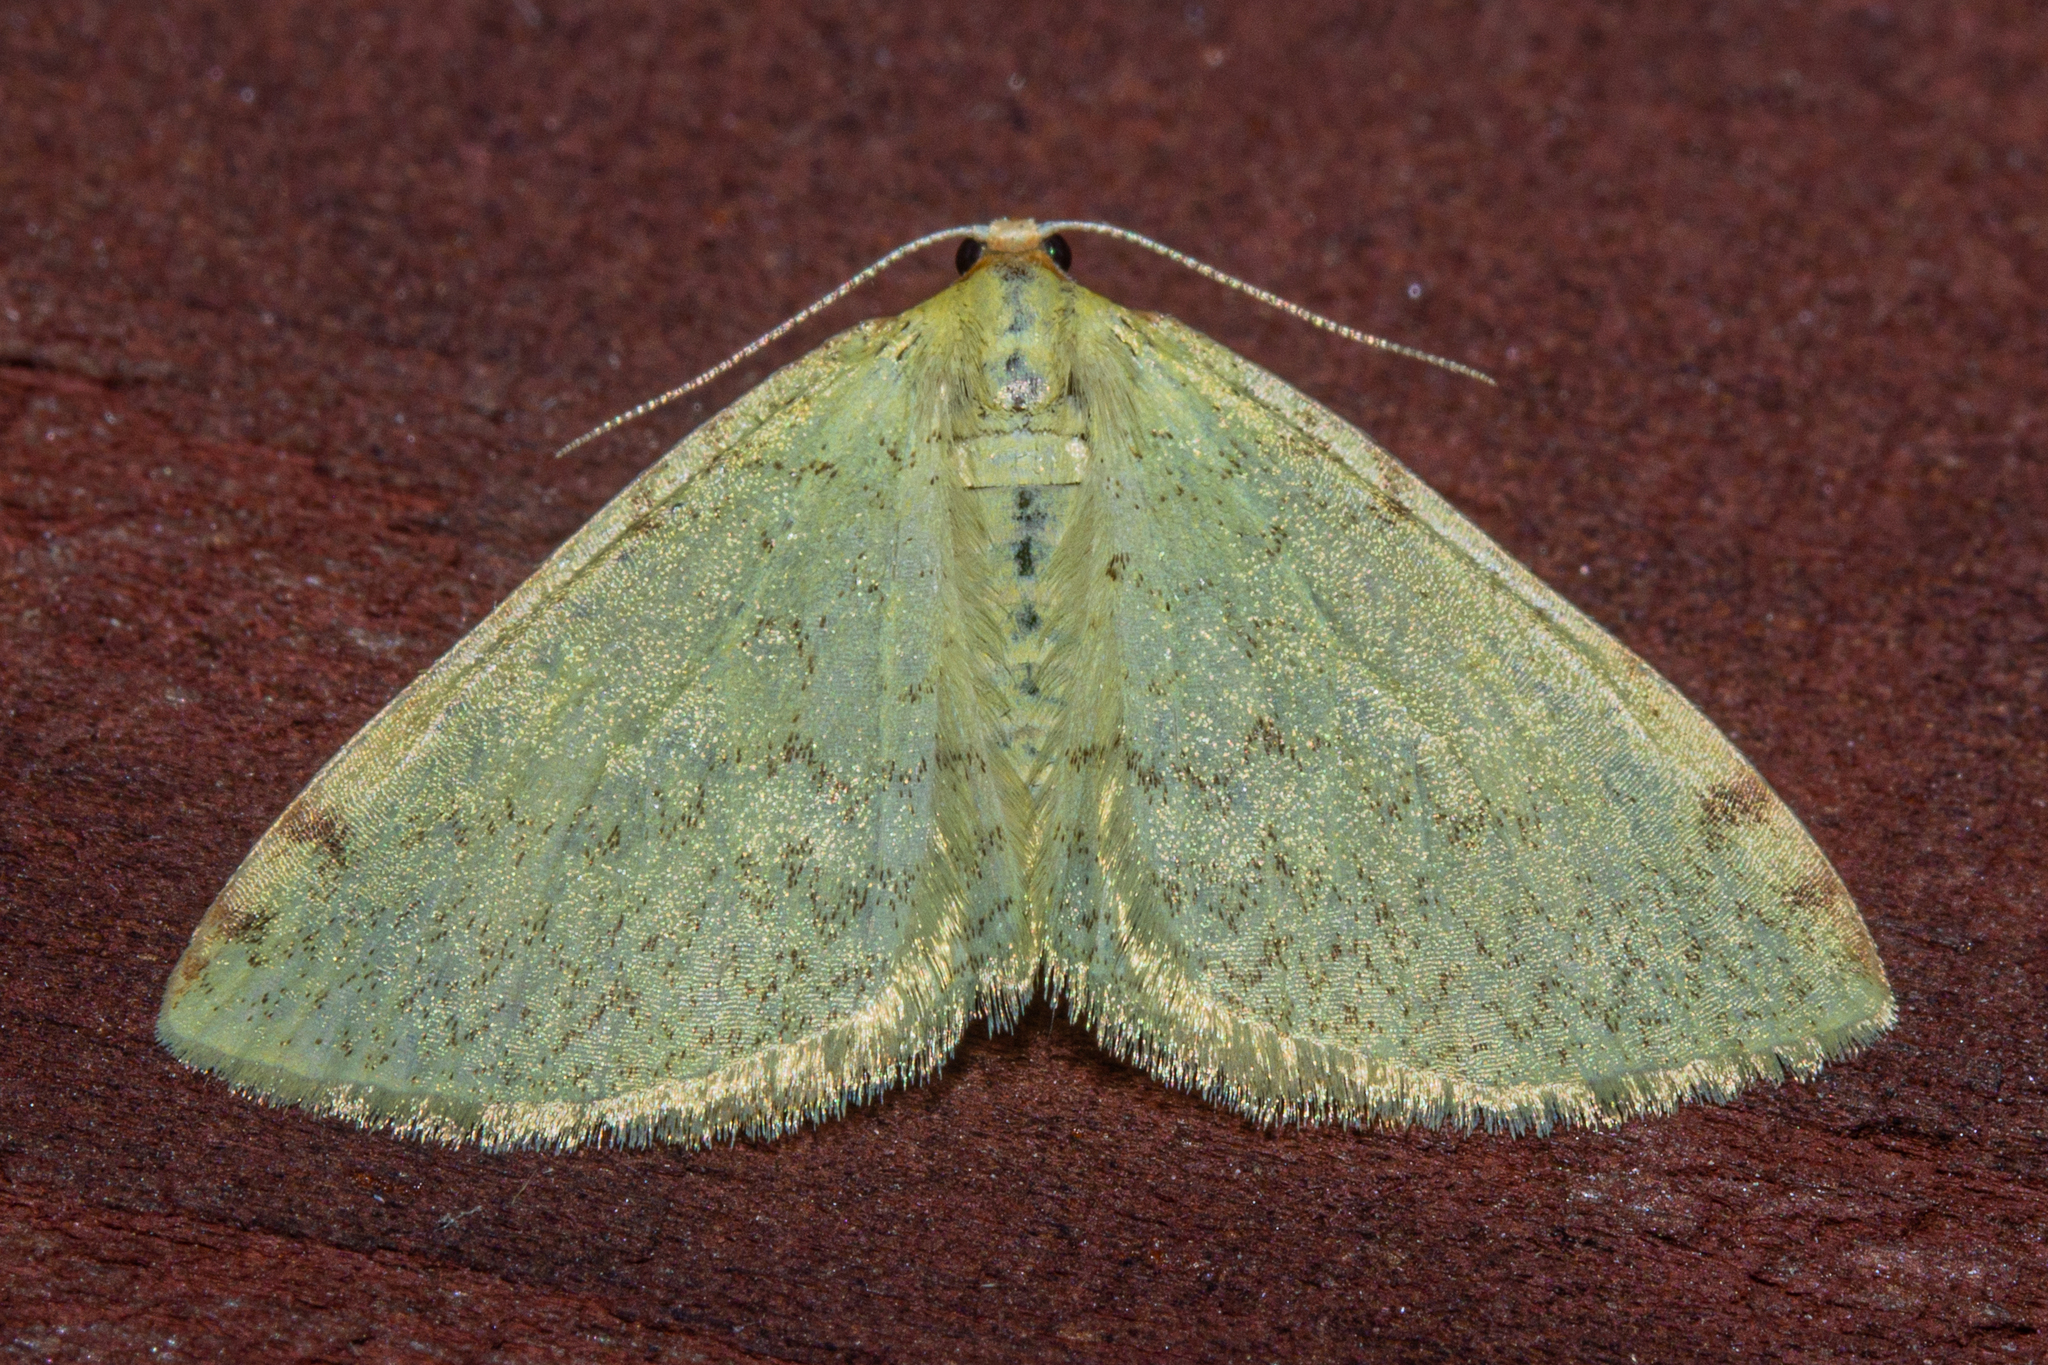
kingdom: Animalia
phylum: Arthropoda
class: Insecta
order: Lepidoptera
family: Geometridae
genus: Epiphryne
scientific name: Epiphryne undosata
